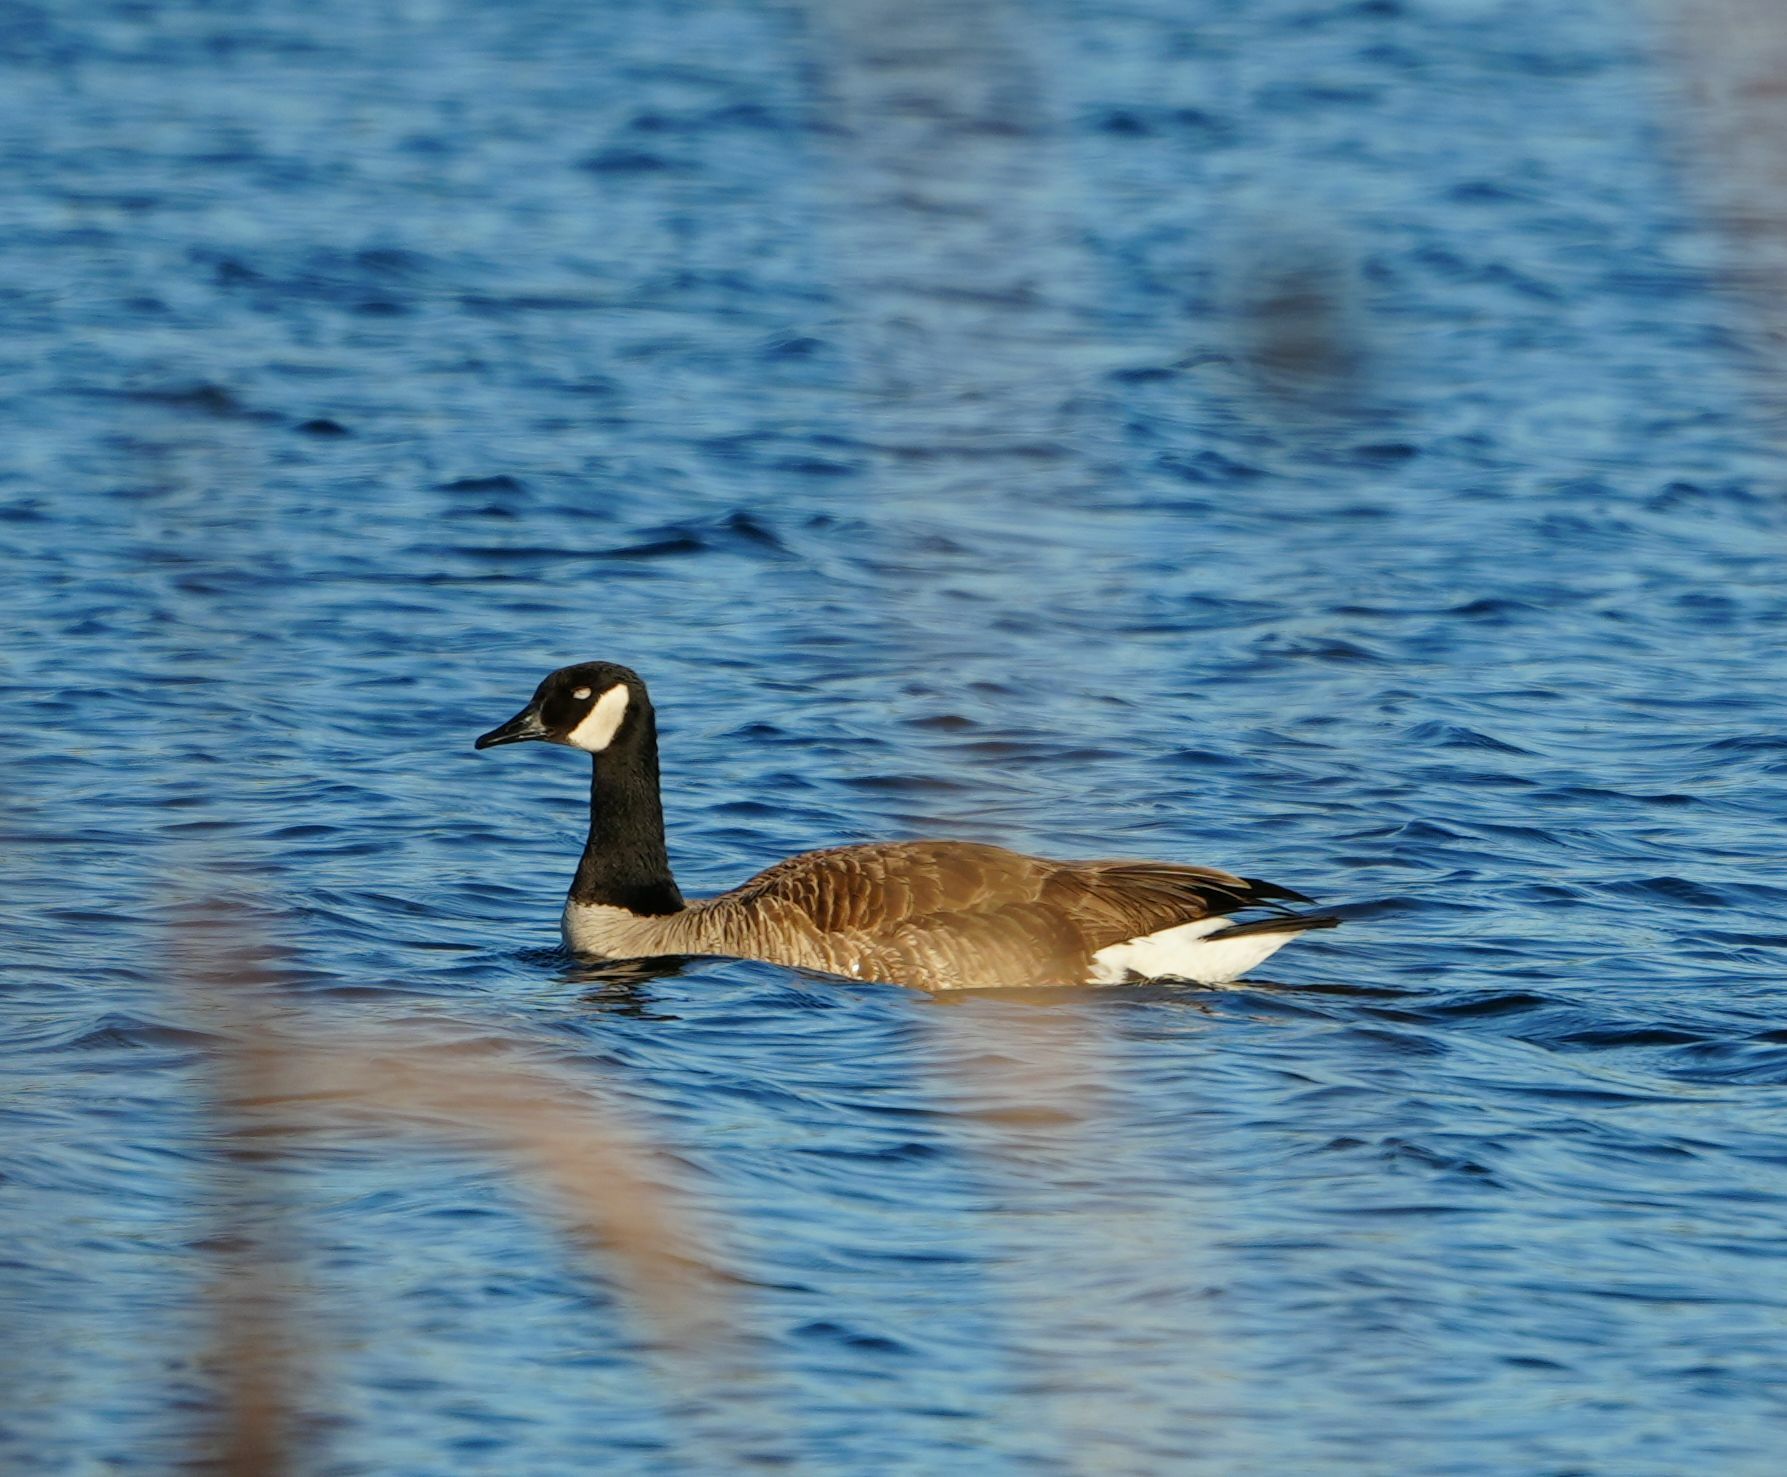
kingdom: Animalia
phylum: Chordata
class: Aves
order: Anseriformes
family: Anatidae
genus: Branta
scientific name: Branta canadensis
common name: Canada goose
